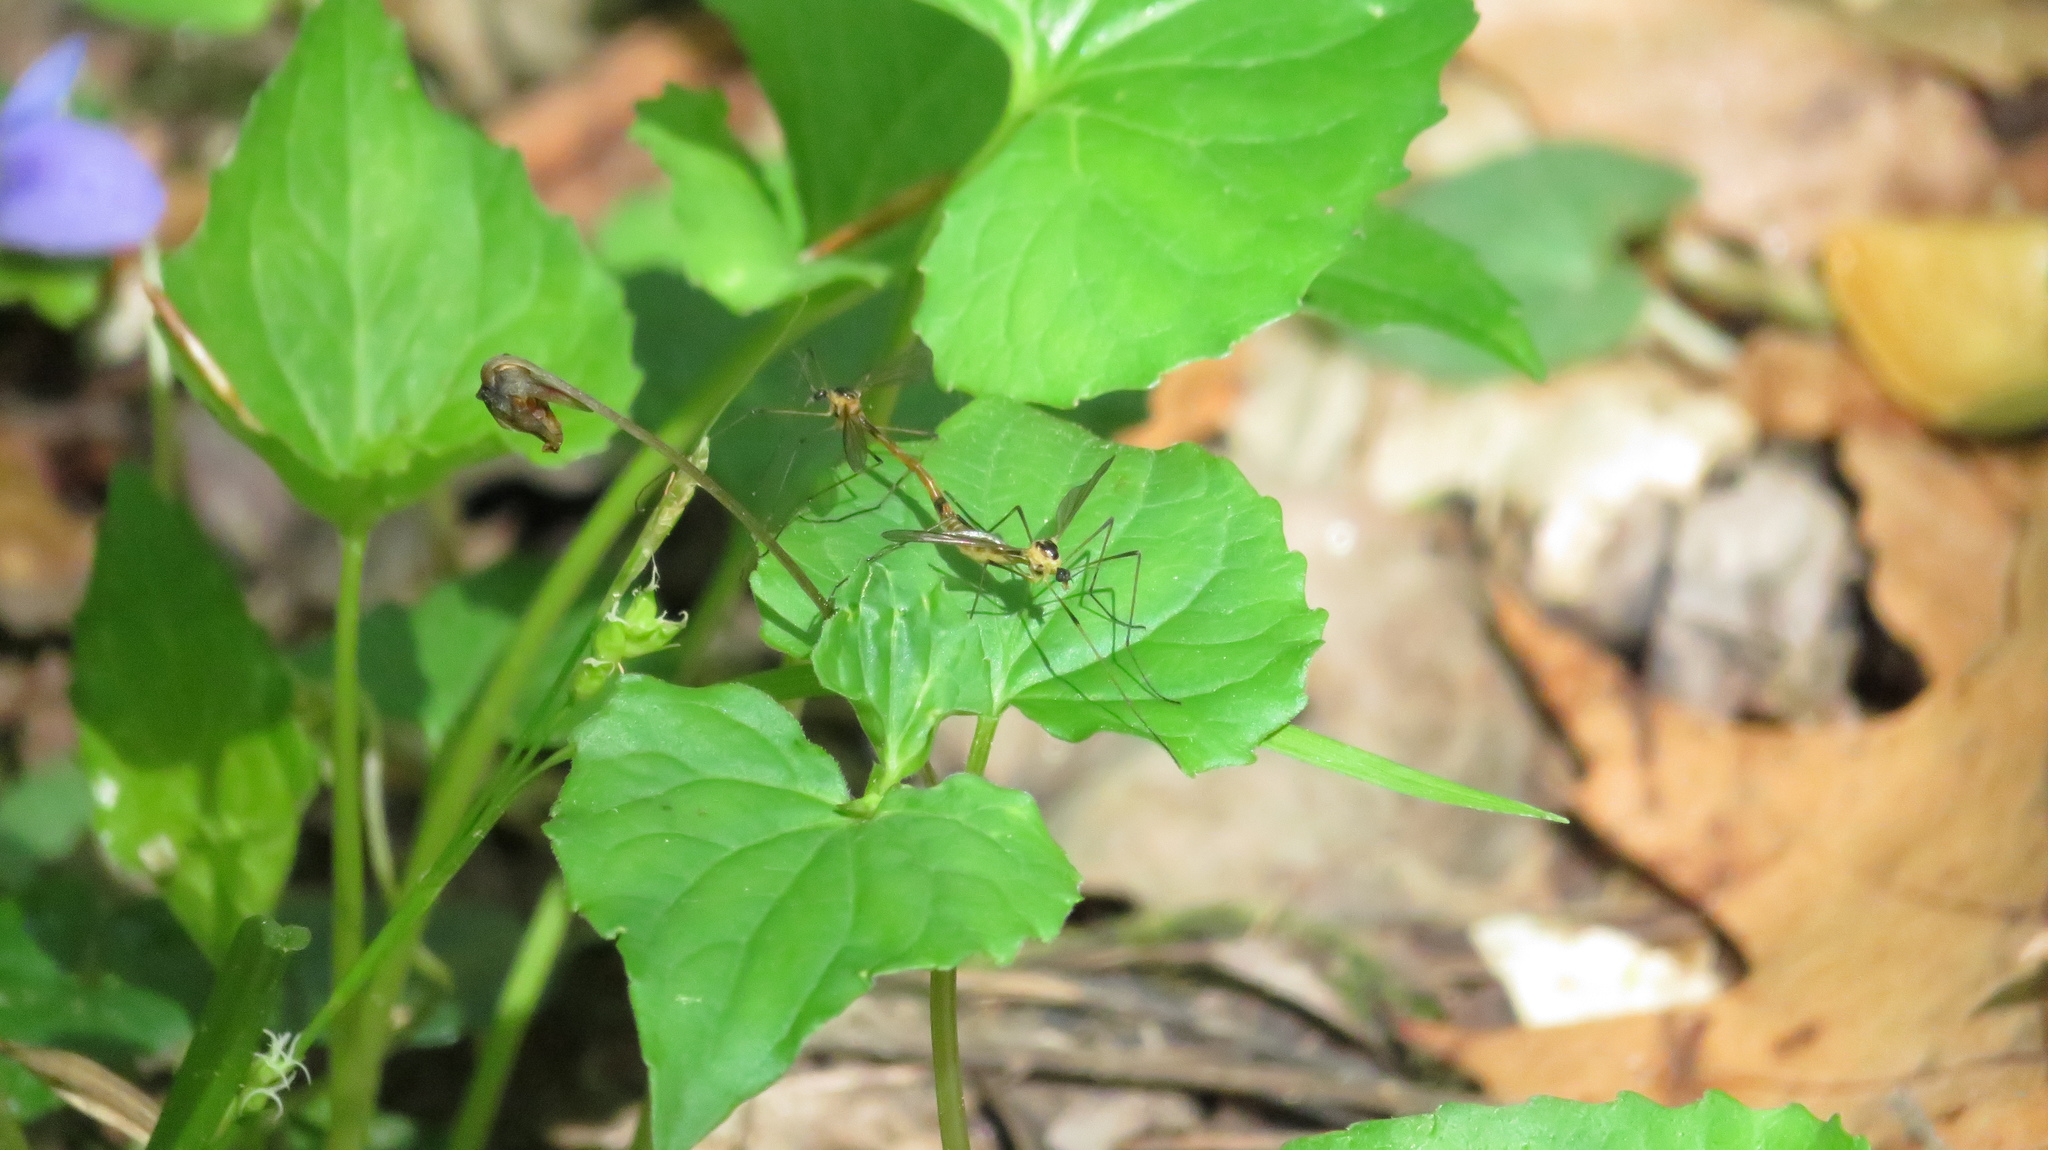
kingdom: Animalia
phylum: Arthropoda
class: Insecta
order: Diptera
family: Cylindrotomidae
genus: Liogma
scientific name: Liogma nodicornis
